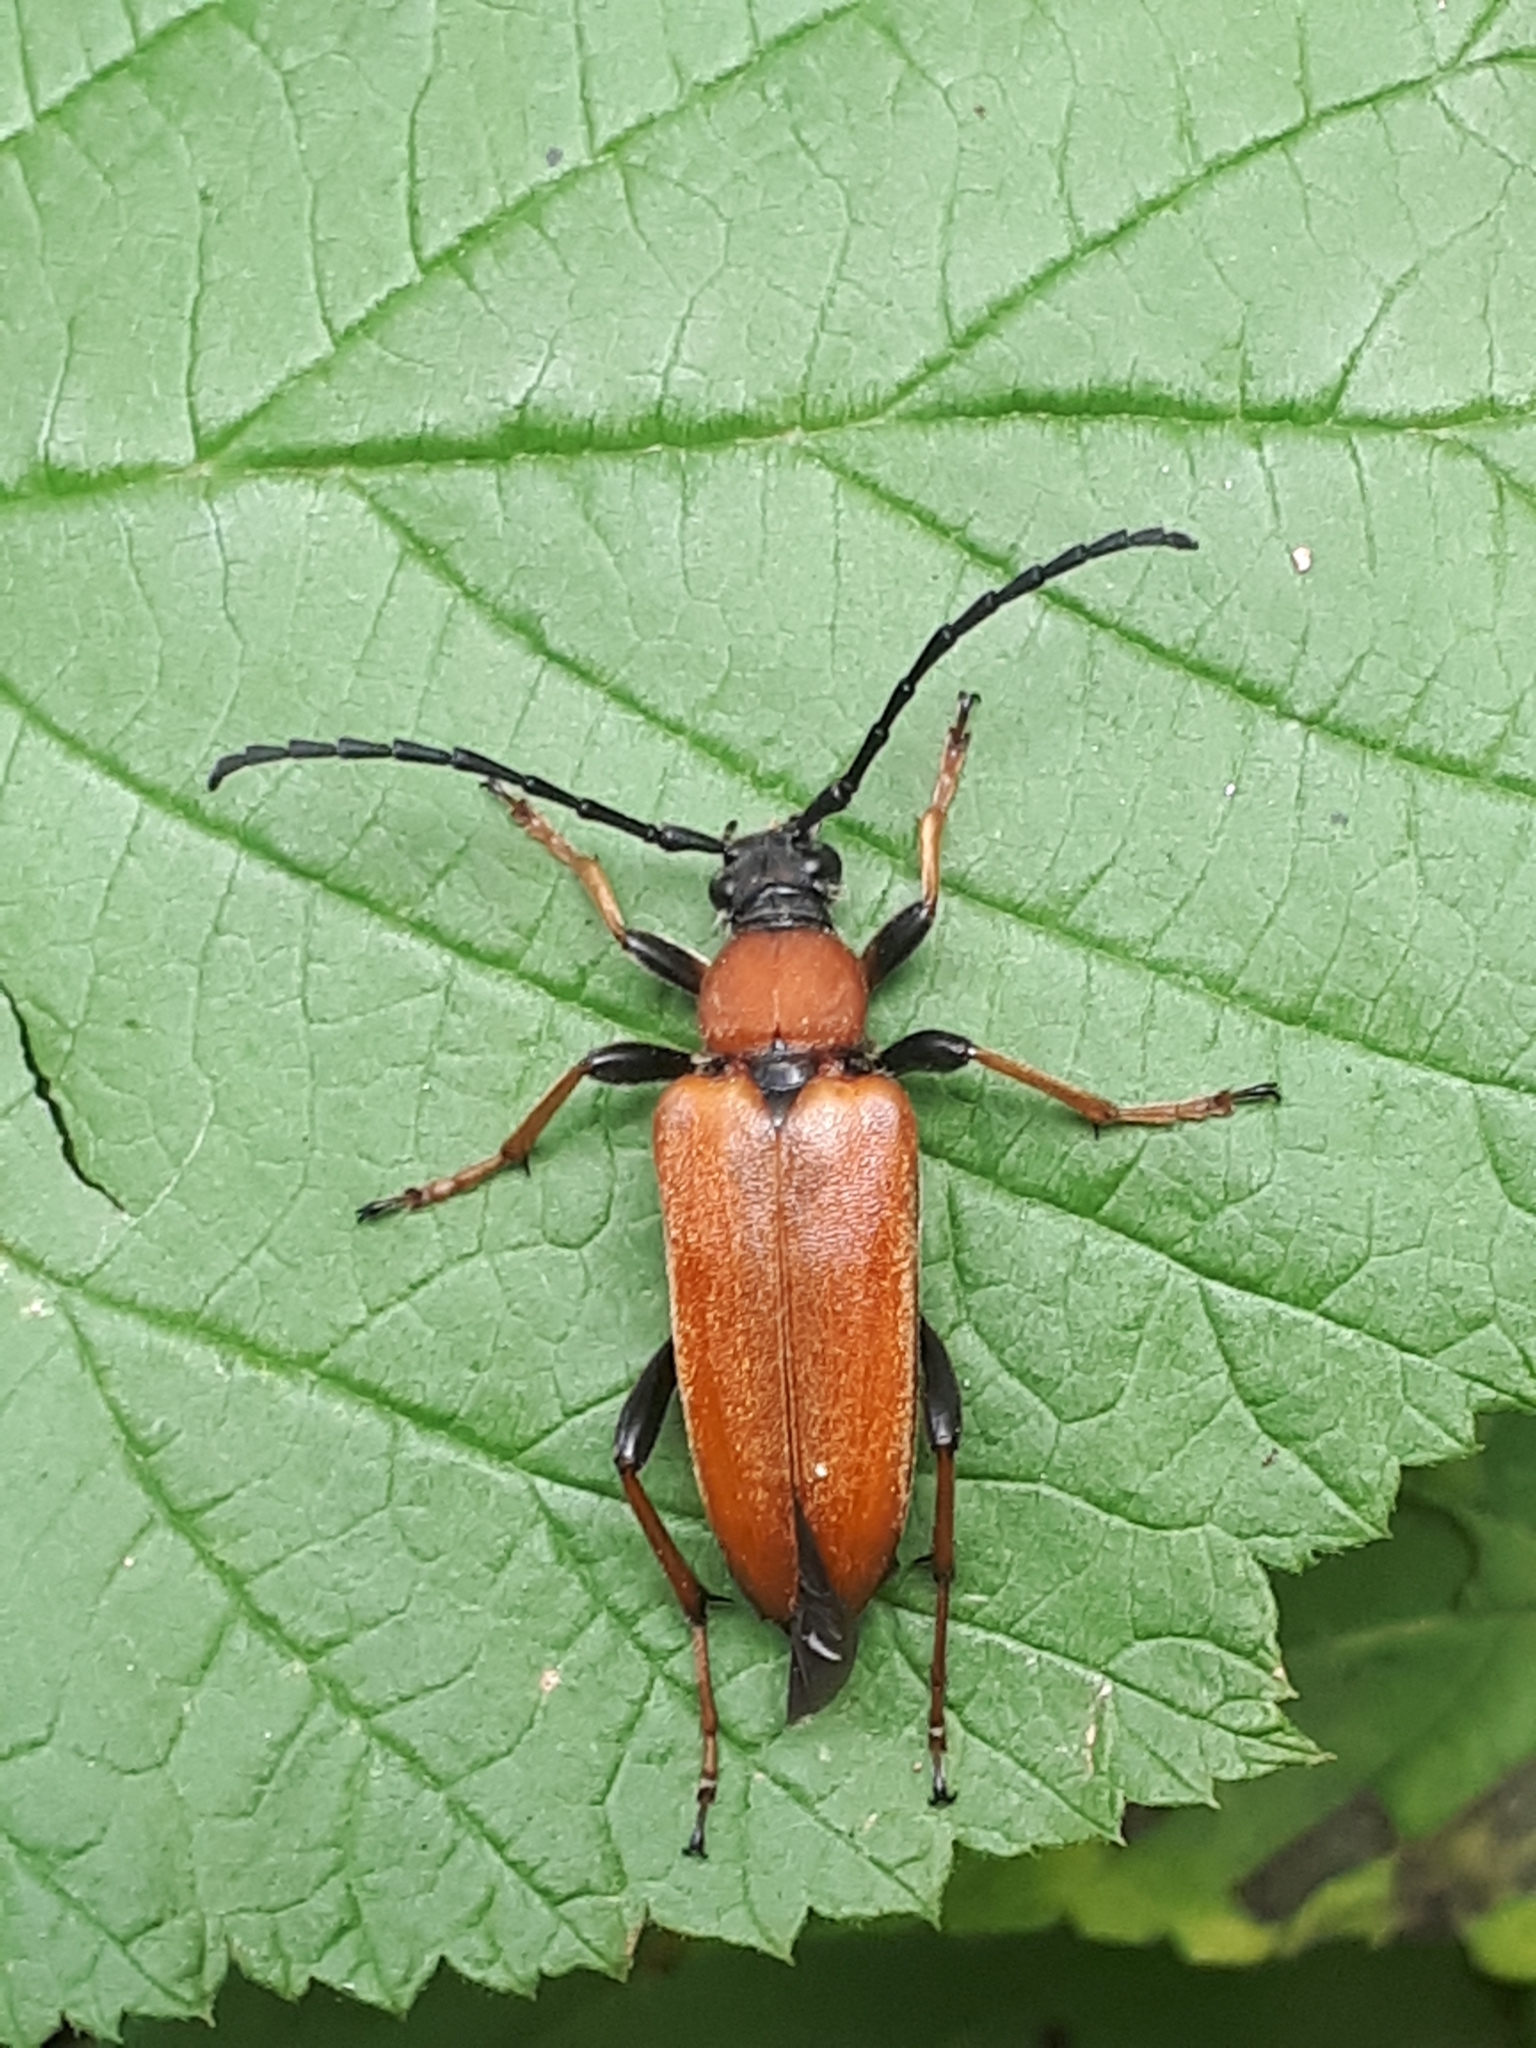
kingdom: Animalia
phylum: Arthropoda
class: Insecta
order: Coleoptera
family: Cerambycidae
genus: Stictoleptura
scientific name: Stictoleptura rubra
